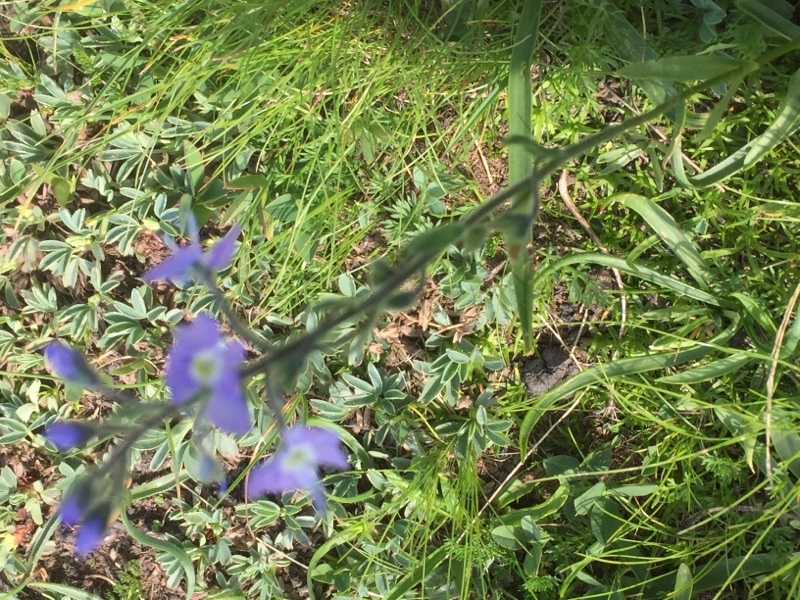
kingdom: Plantae
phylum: Tracheophyta
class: Magnoliopsida
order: Lamiales
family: Plantaginaceae
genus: Veronica
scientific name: Veronica gentianoides
